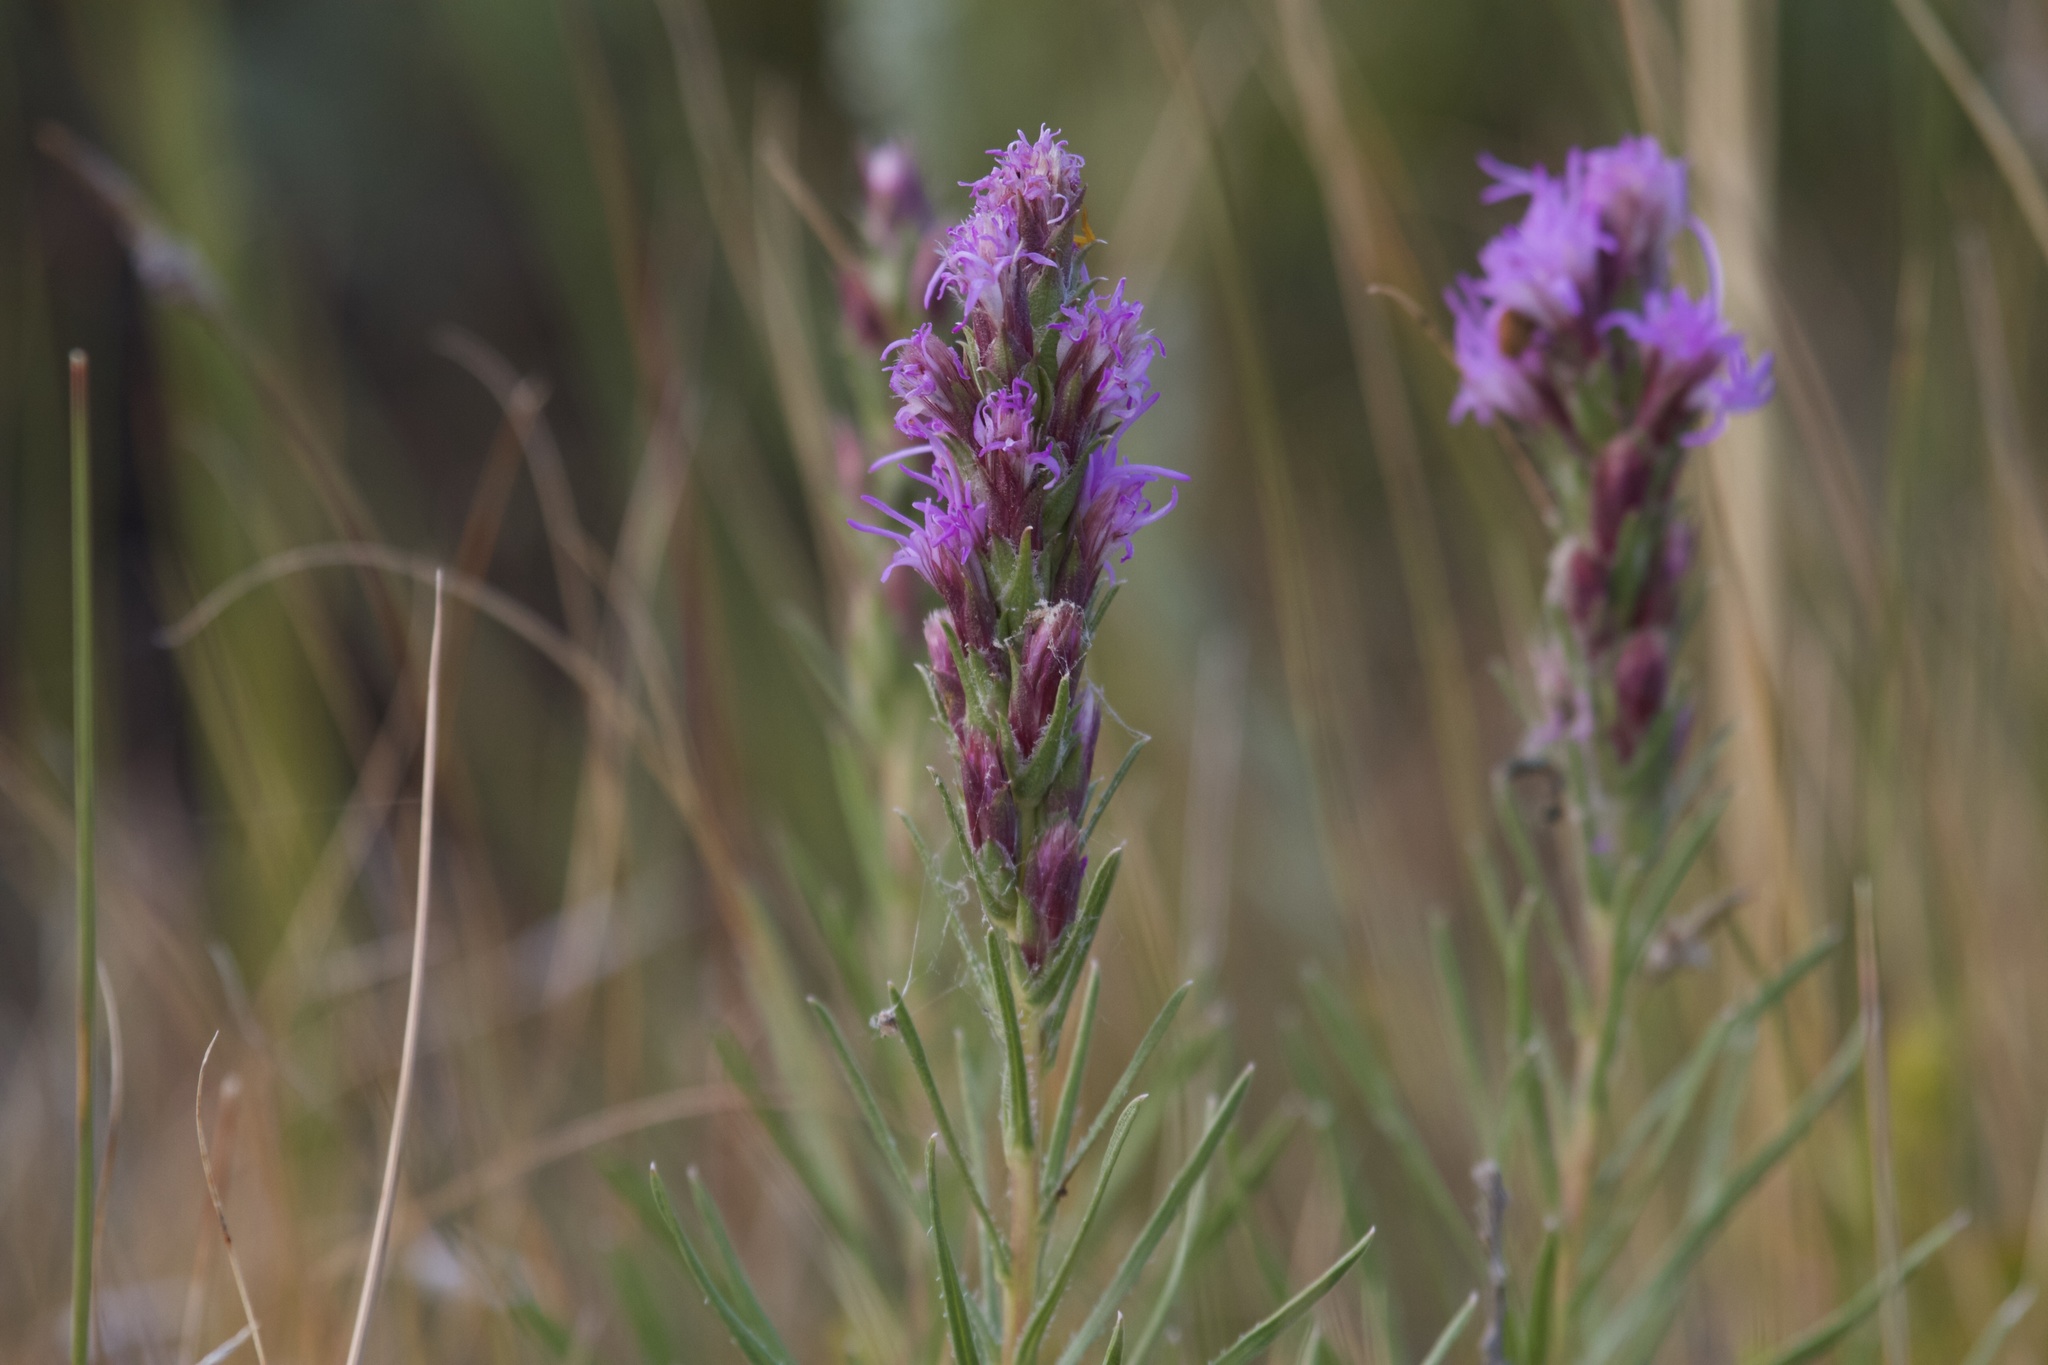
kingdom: Plantae
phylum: Tracheophyta
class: Magnoliopsida
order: Asterales
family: Asteraceae
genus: Liatris
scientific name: Liatris punctata
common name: Dotted gayfeather
